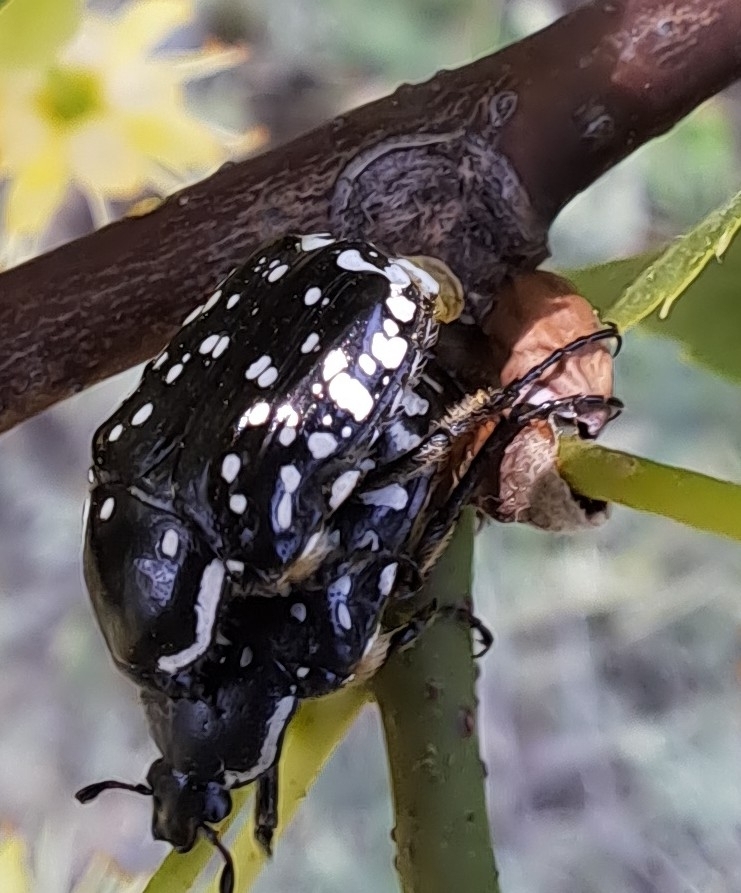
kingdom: Animalia
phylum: Arthropoda
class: Insecta
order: Coleoptera
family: Scarabaeidae
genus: Oxythyrea
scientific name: Oxythyrea cinctella
